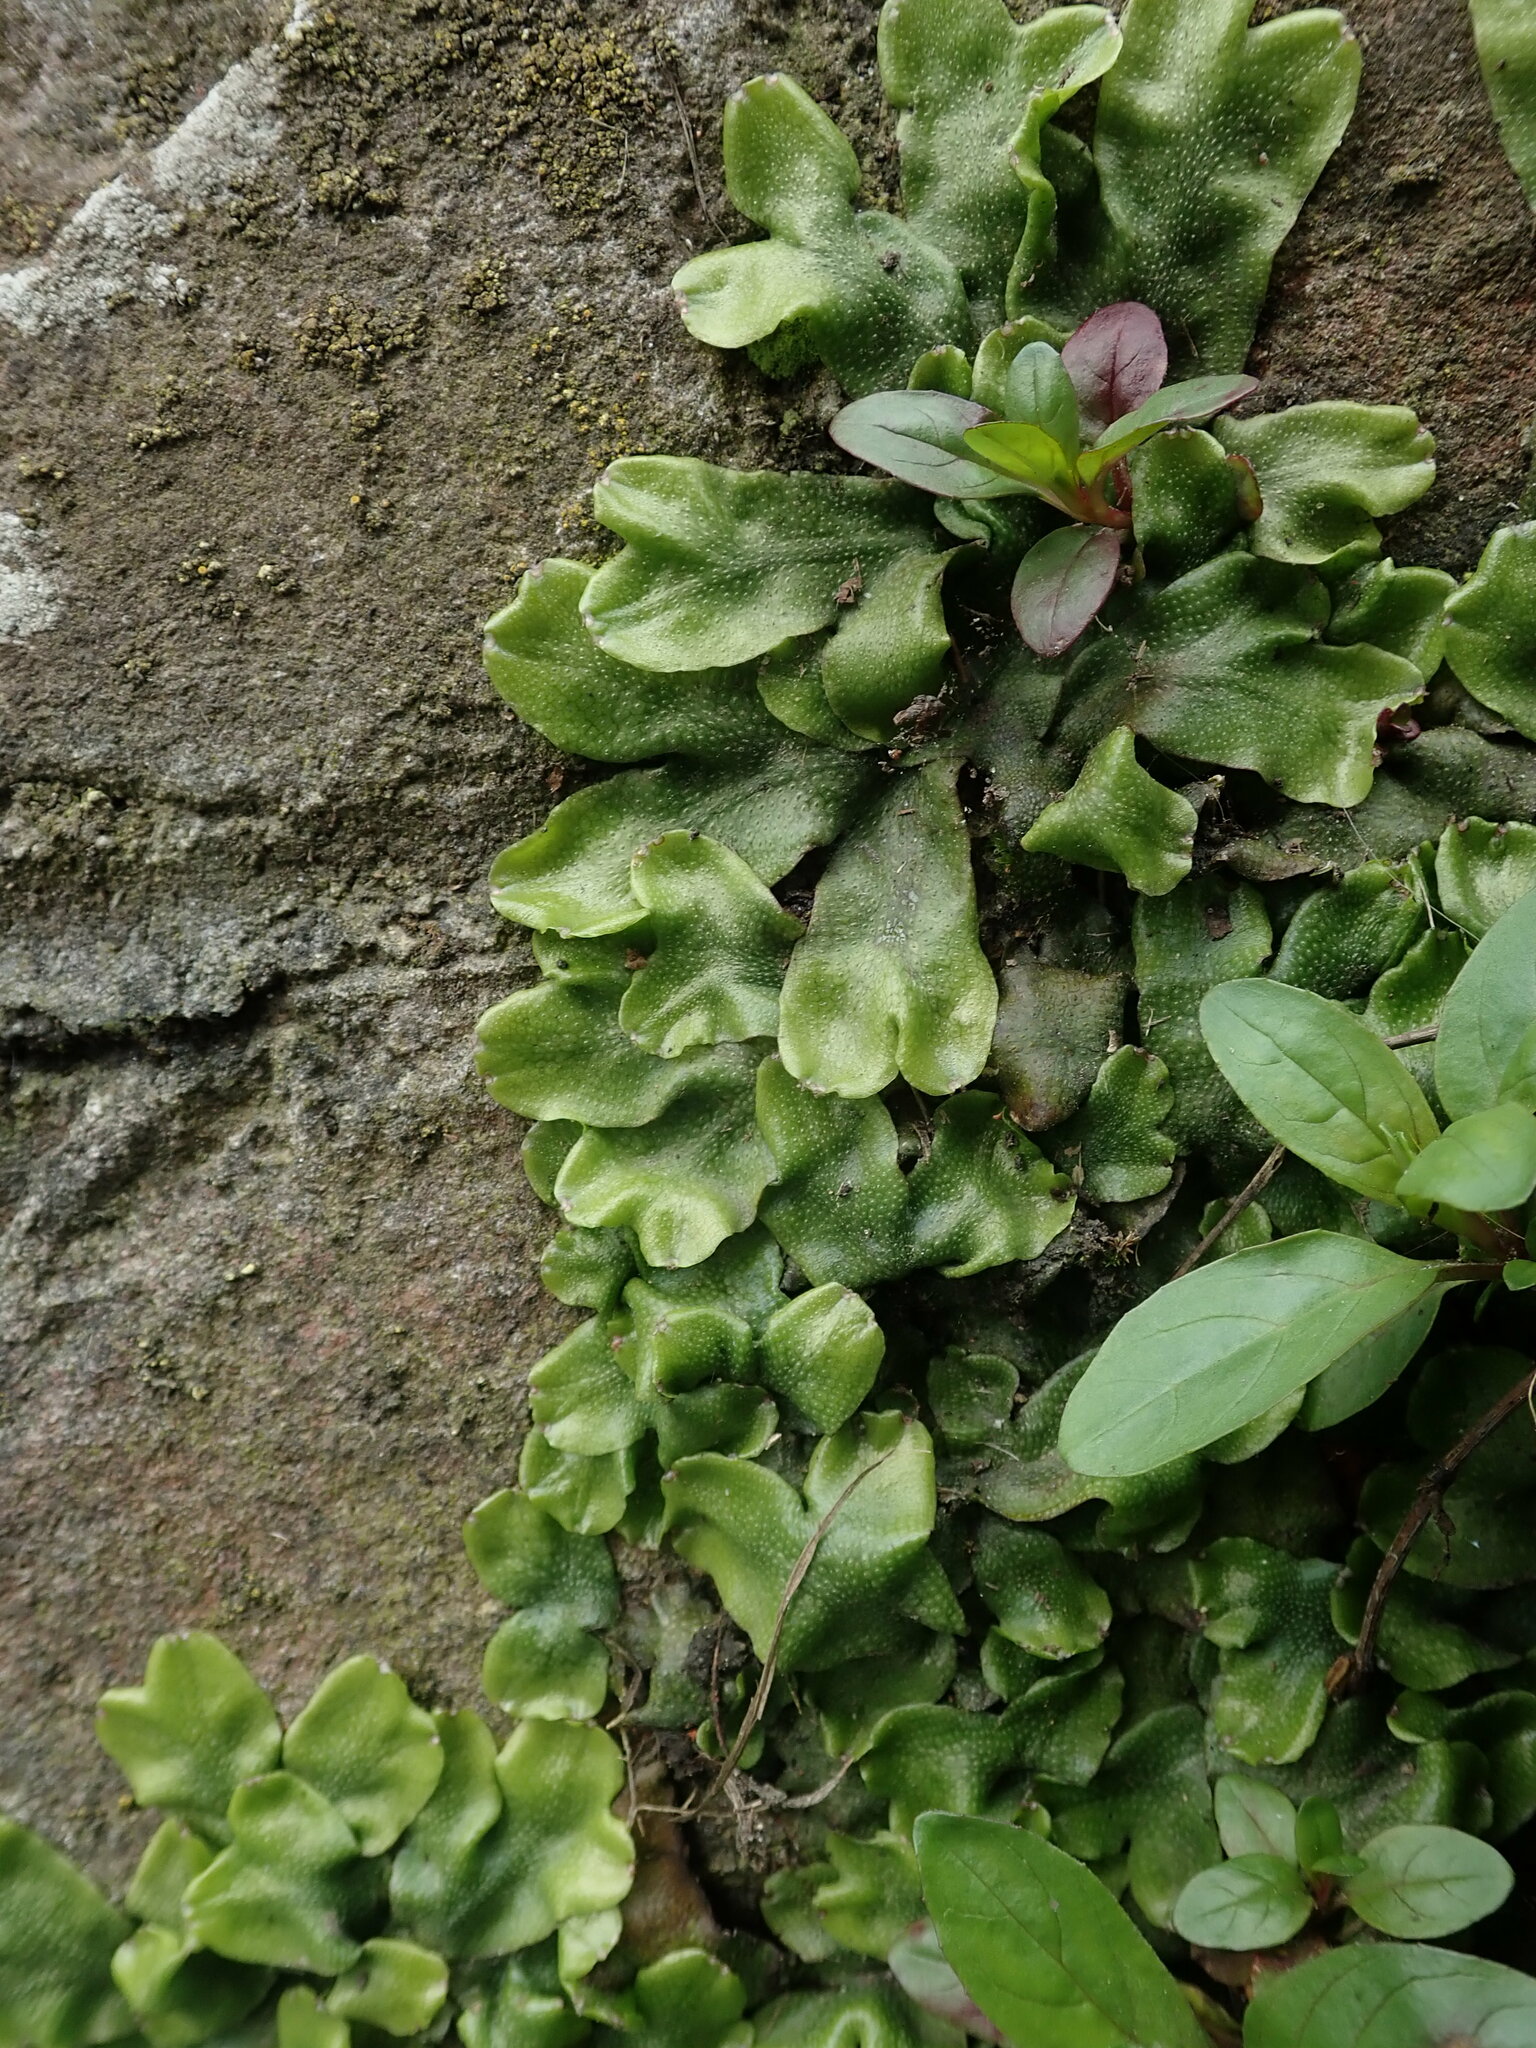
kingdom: Plantae
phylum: Marchantiophyta
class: Marchantiopsida
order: Marchantiales
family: Conocephalaceae
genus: Conocephalum
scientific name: Conocephalum conicum
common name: Great scented liverwort
